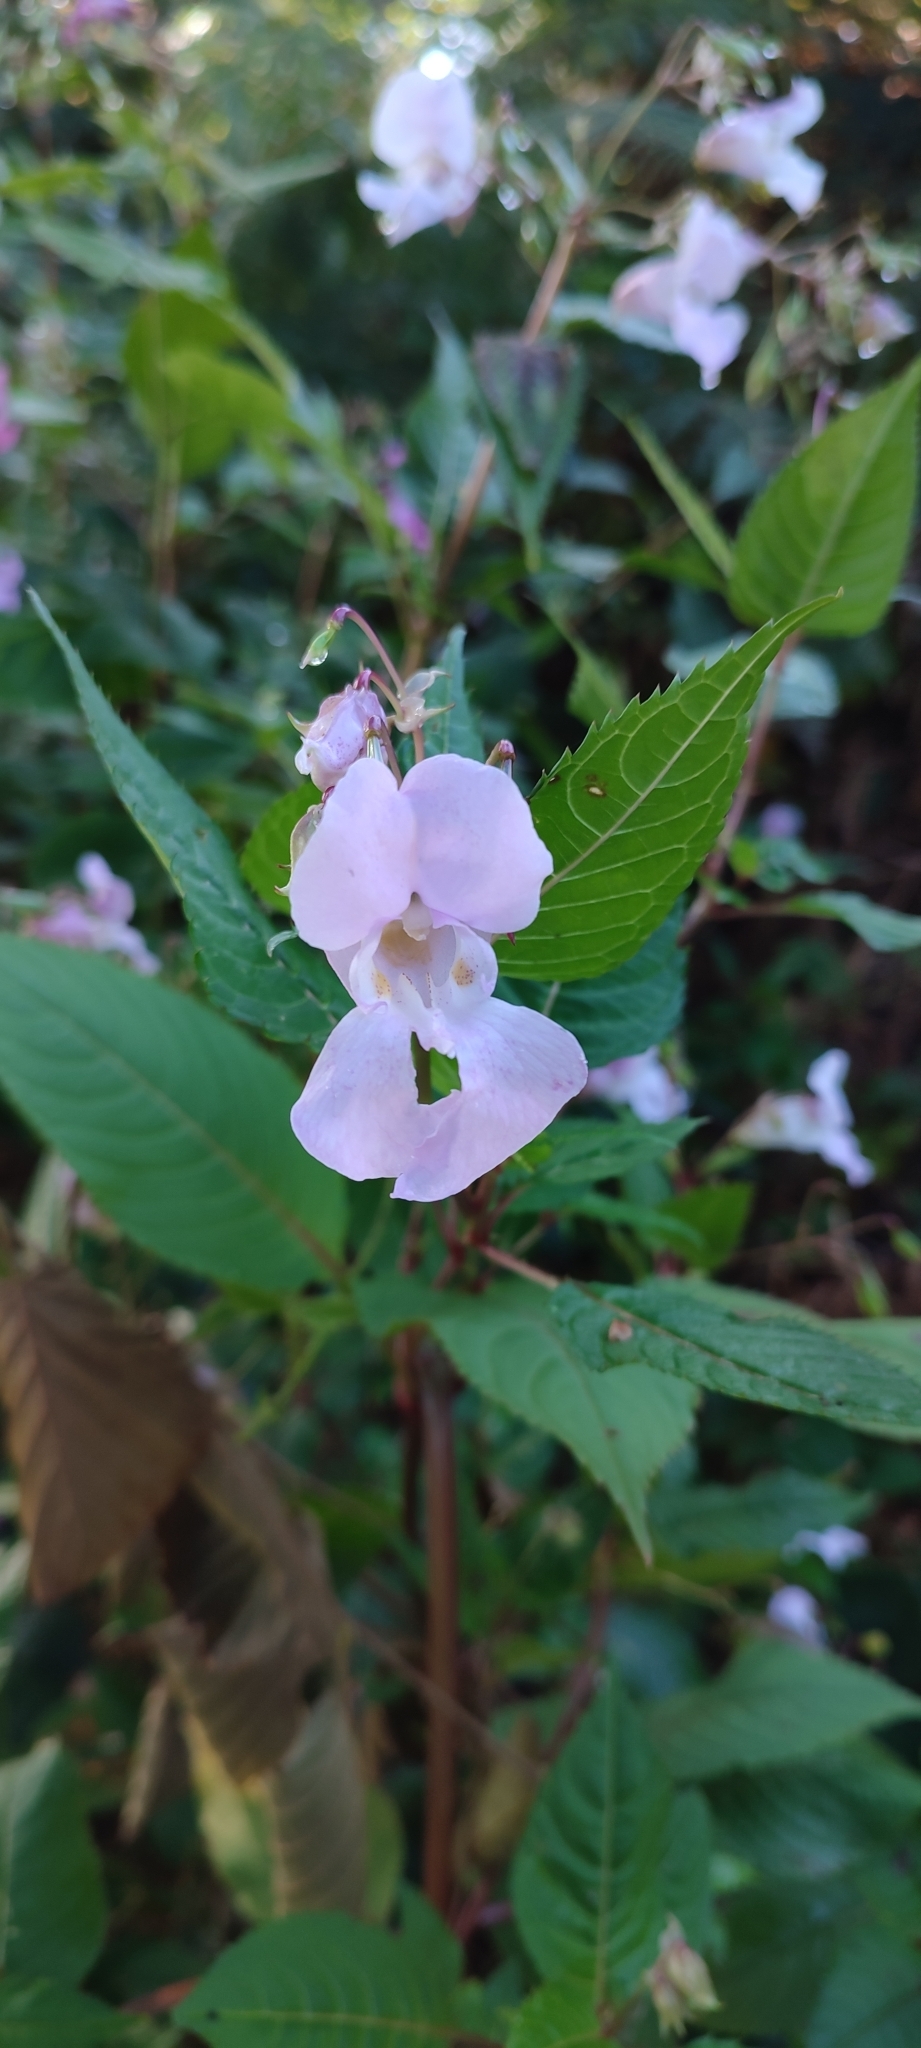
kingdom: Plantae
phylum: Tracheophyta
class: Magnoliopsida
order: Ericales
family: Balsaminaceae
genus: Impatiens
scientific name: Impatiens glandulifera
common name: Himalayan balsam
